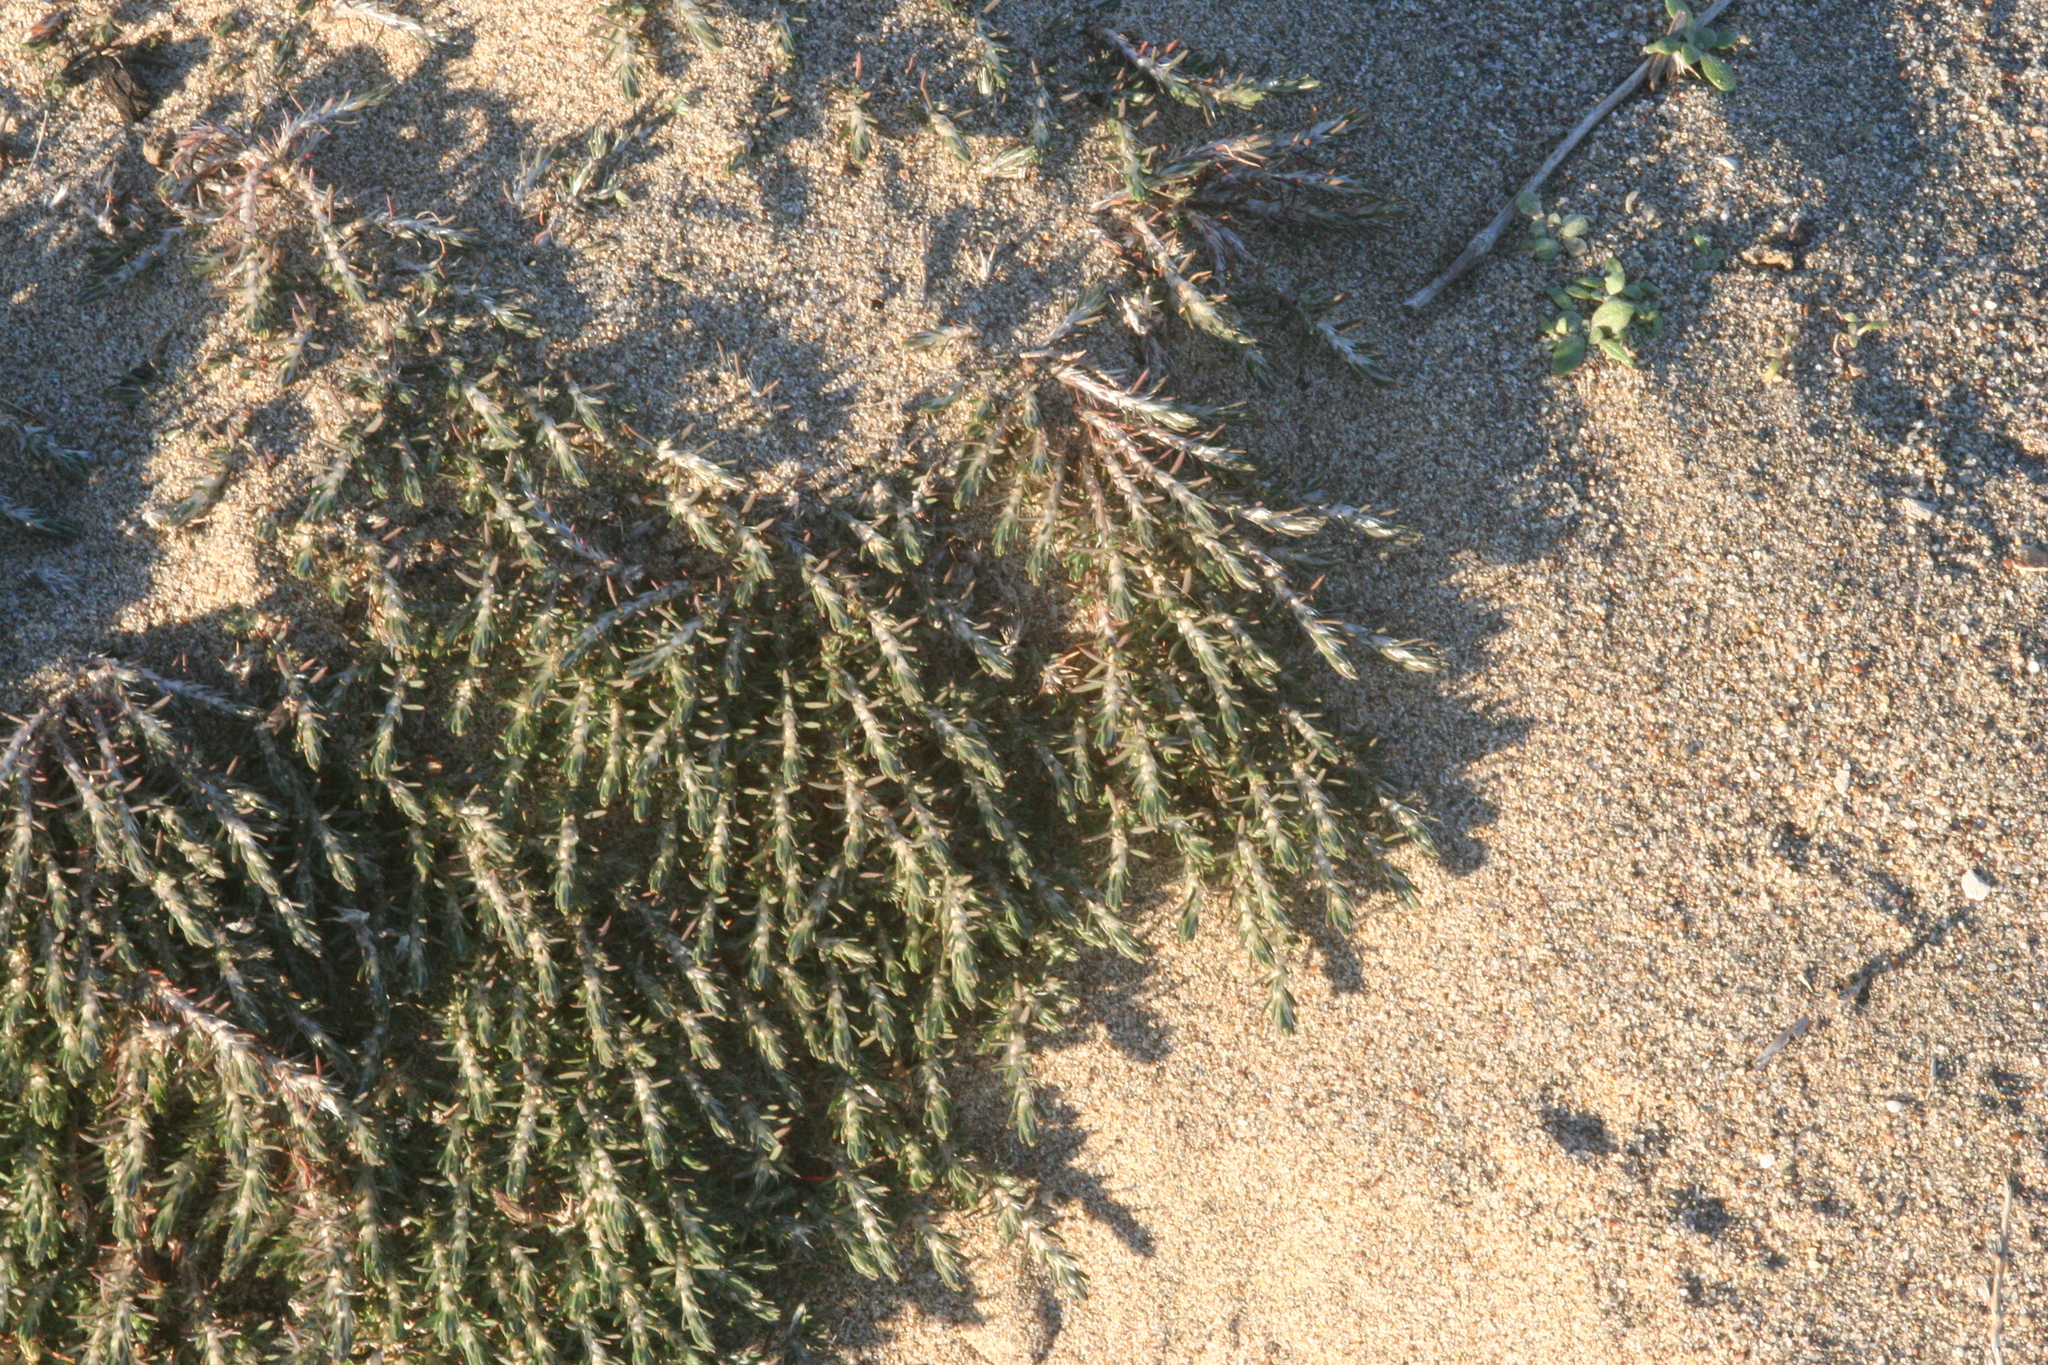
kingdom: Plantae
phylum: Tracheophyta
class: Magnoliopsida
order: Caryophyllales
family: Caryophyllaceae
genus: Cardionema
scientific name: Cardionema ramosissima
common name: Sandcarpet
